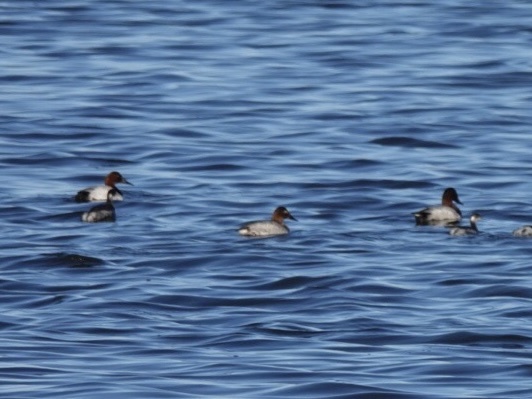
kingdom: Animalia
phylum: Chordata
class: Aves
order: Anseriformes
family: Anatidae
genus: Aythya
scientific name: Aythya valisineria
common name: Canvasback
